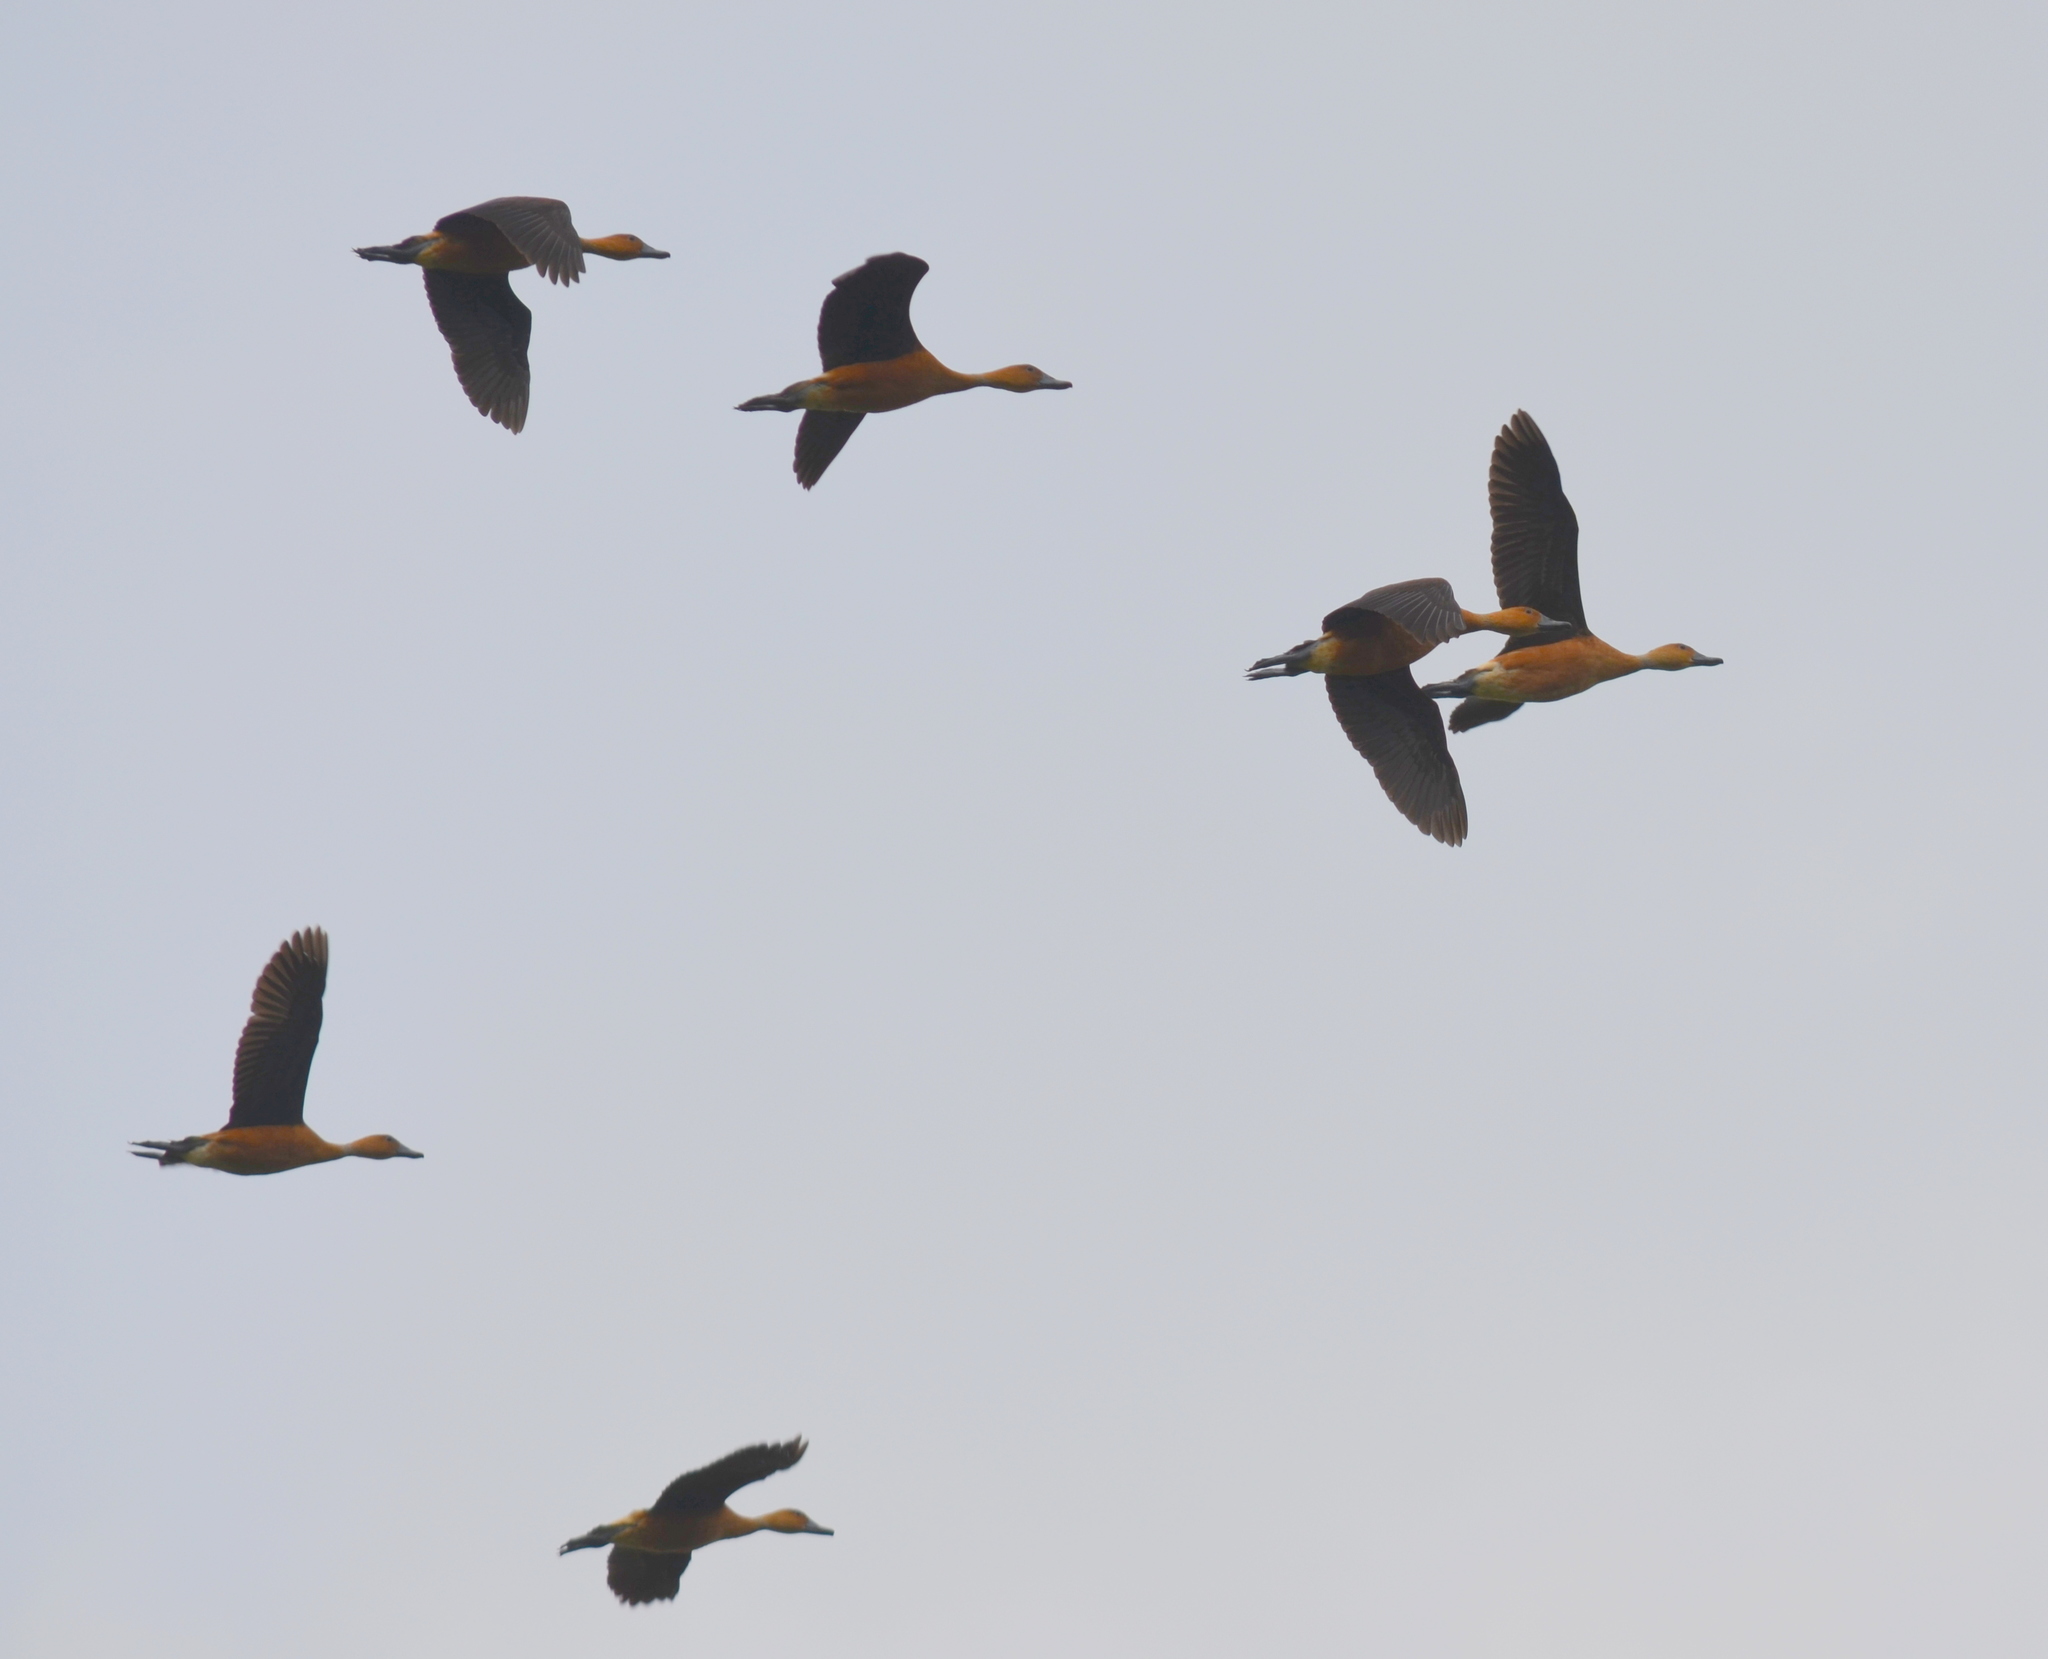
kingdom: Animalia
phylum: Chordata
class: Aves
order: Anseriformes
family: Anatidae
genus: Dendrocygna
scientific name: Dendrocygna bicolor
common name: Fulvous whistling duck
